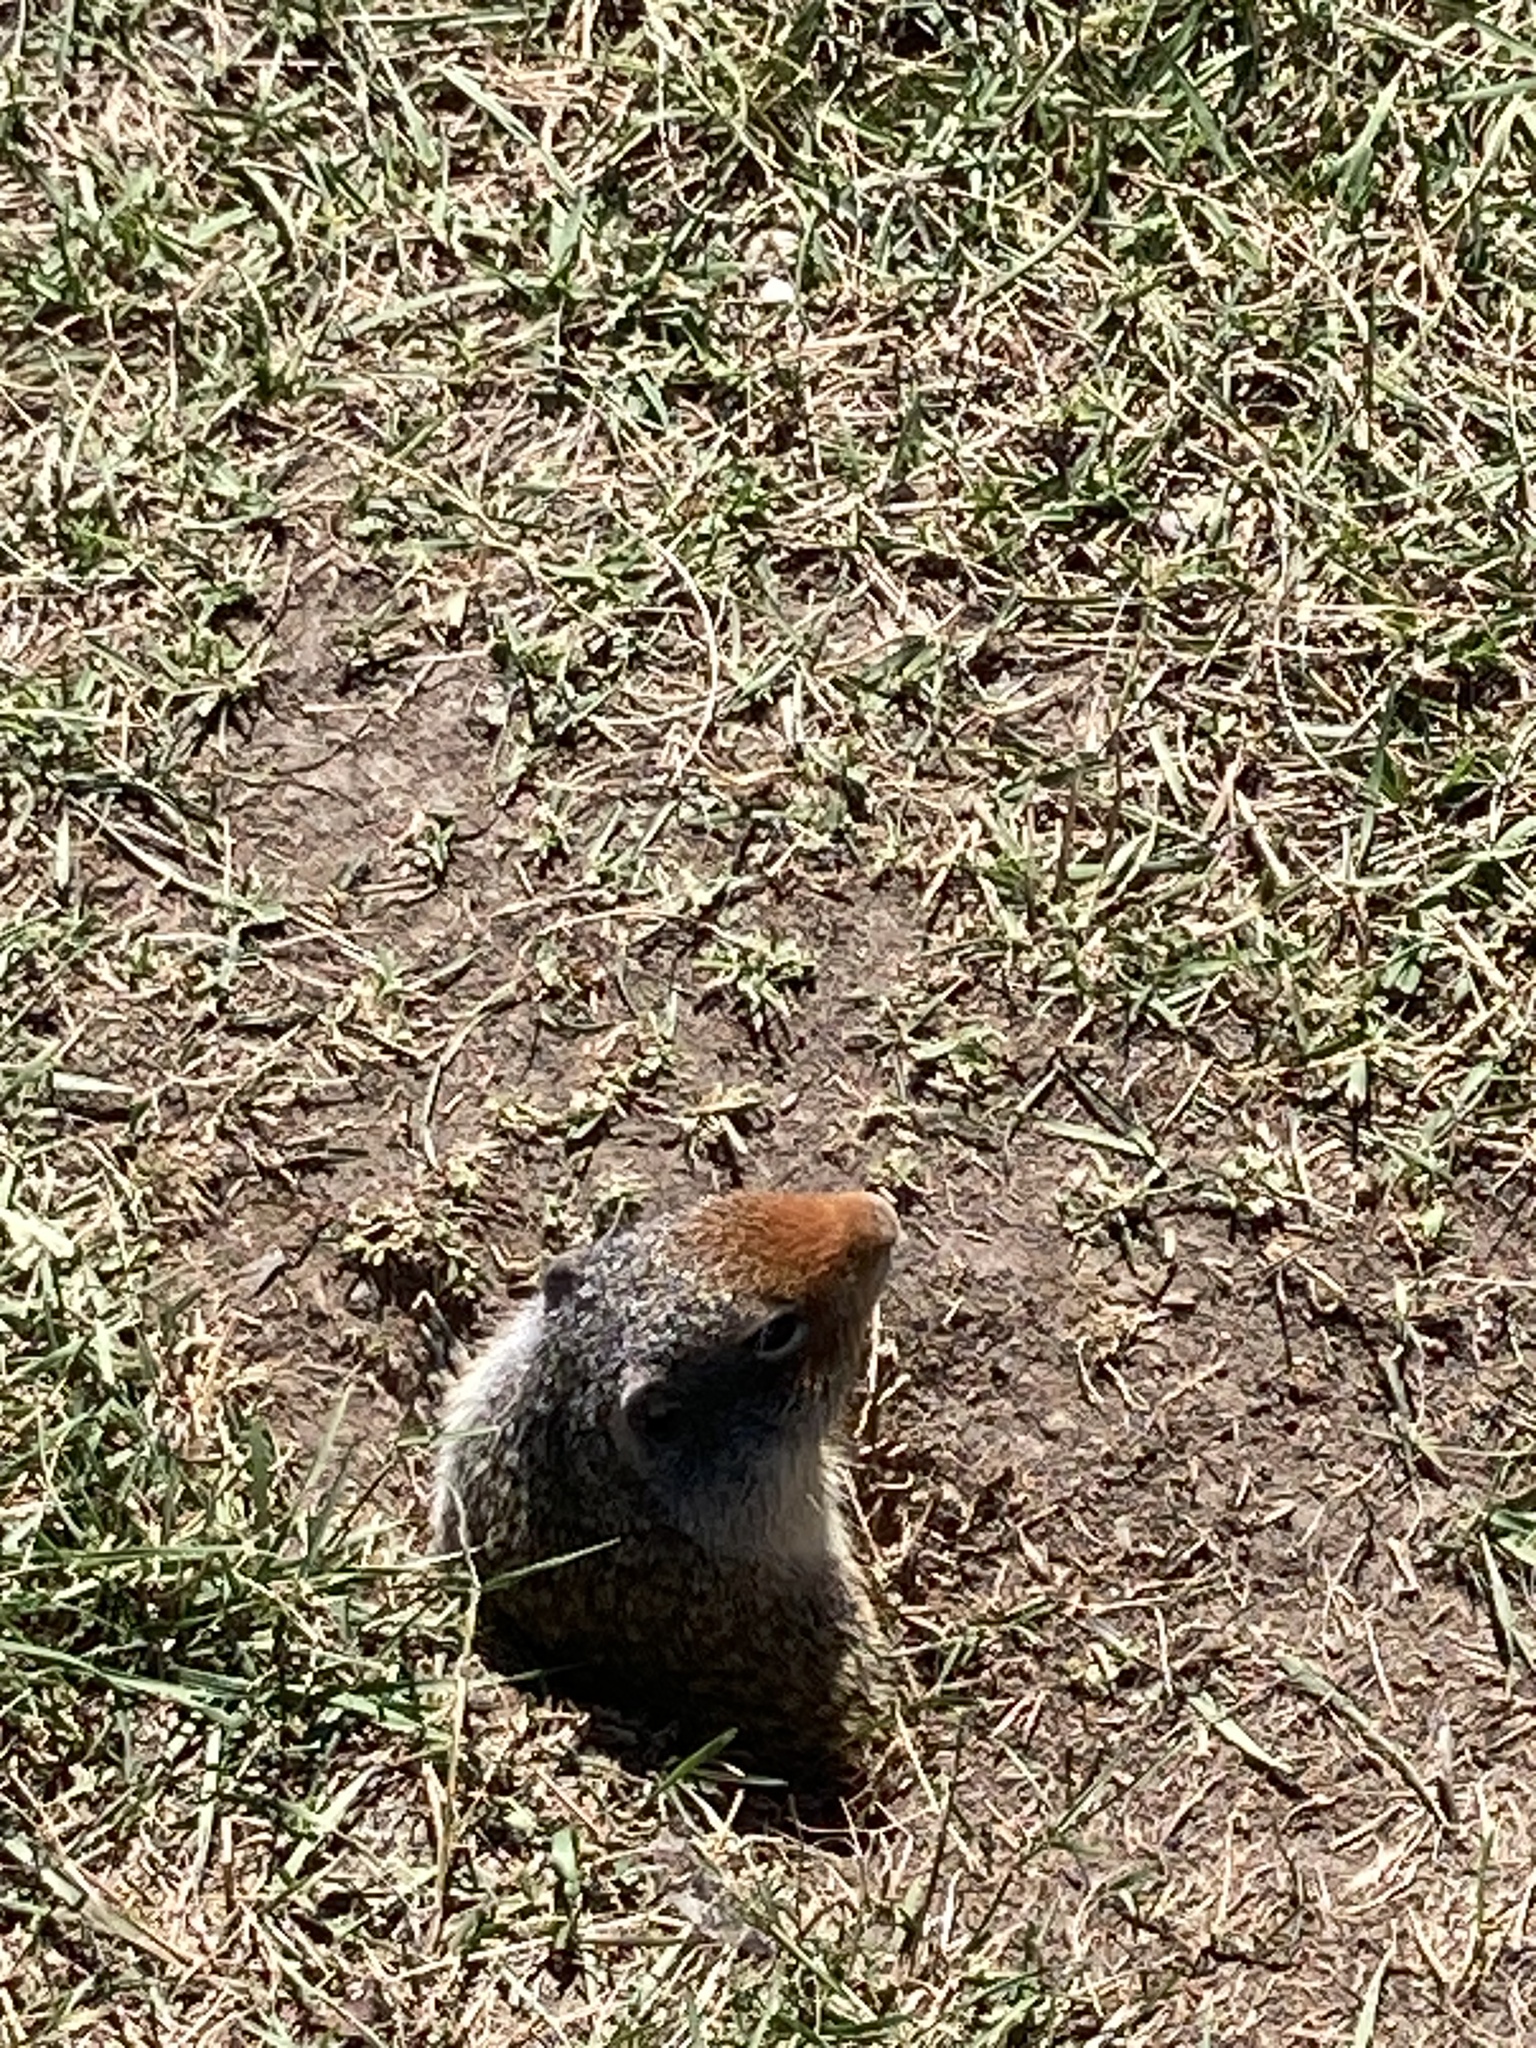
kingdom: Animalia
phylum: Chordata
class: Mammalia
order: Rodentia
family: Sciuridae
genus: Urocitellus
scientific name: Urocitellus columbianus
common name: Columbian ground squirrel
